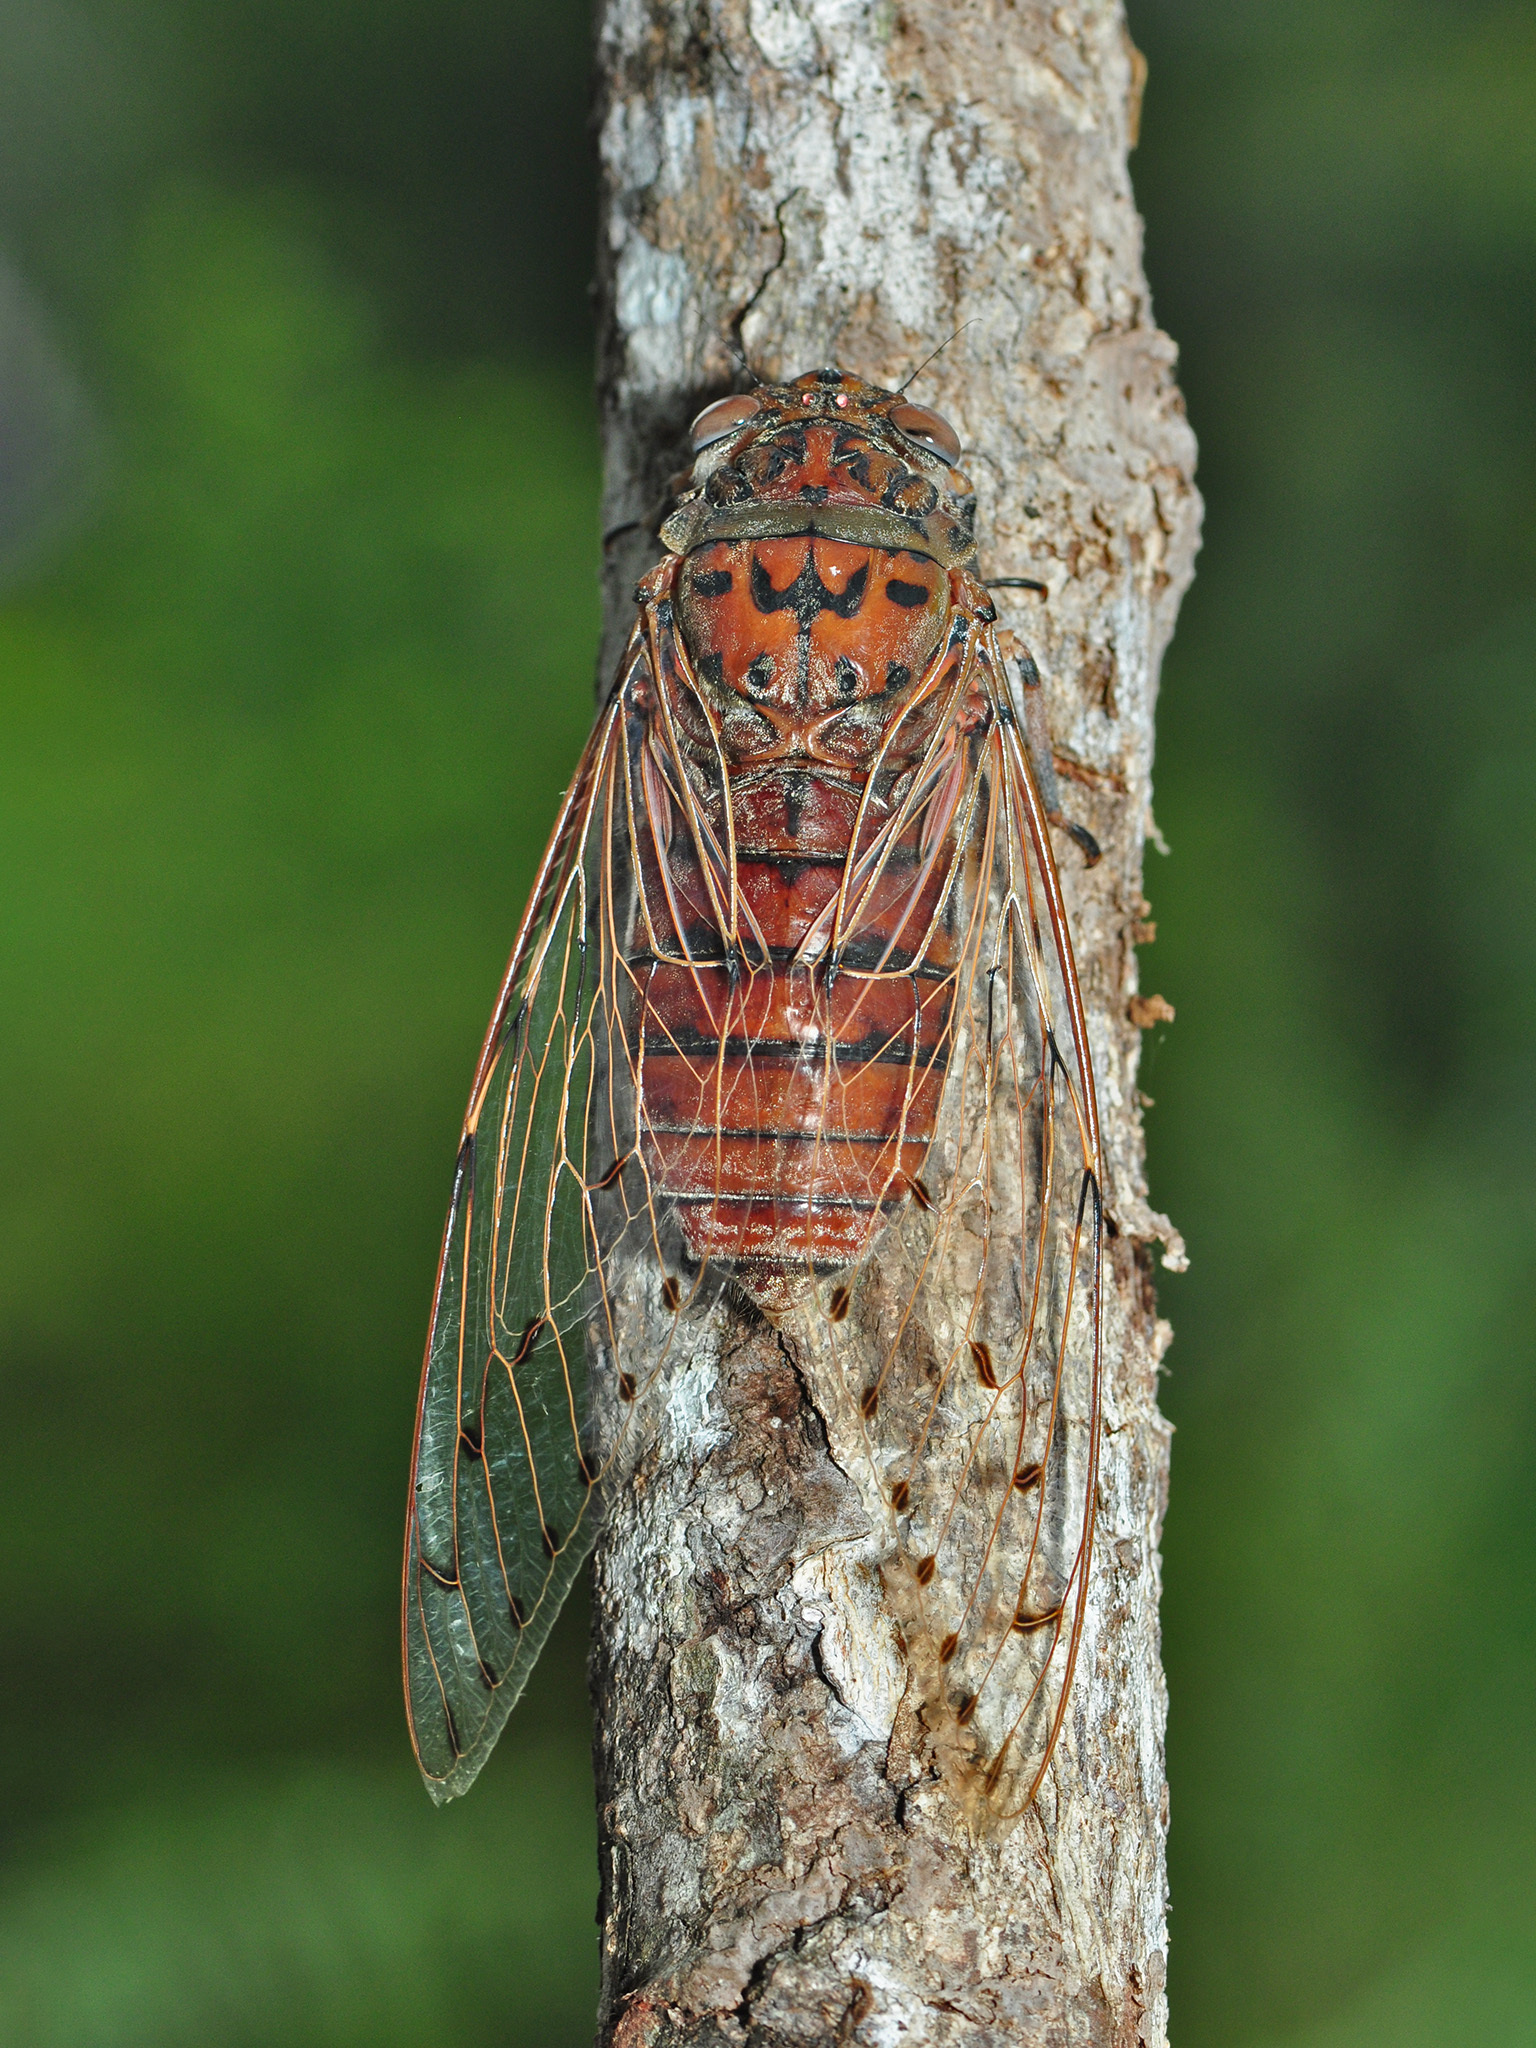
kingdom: Animalia
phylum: Arthropoda
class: Insecta
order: Hemiptera
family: Cicadidae
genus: Megapomponia
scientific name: Megapomponia imperatoria
